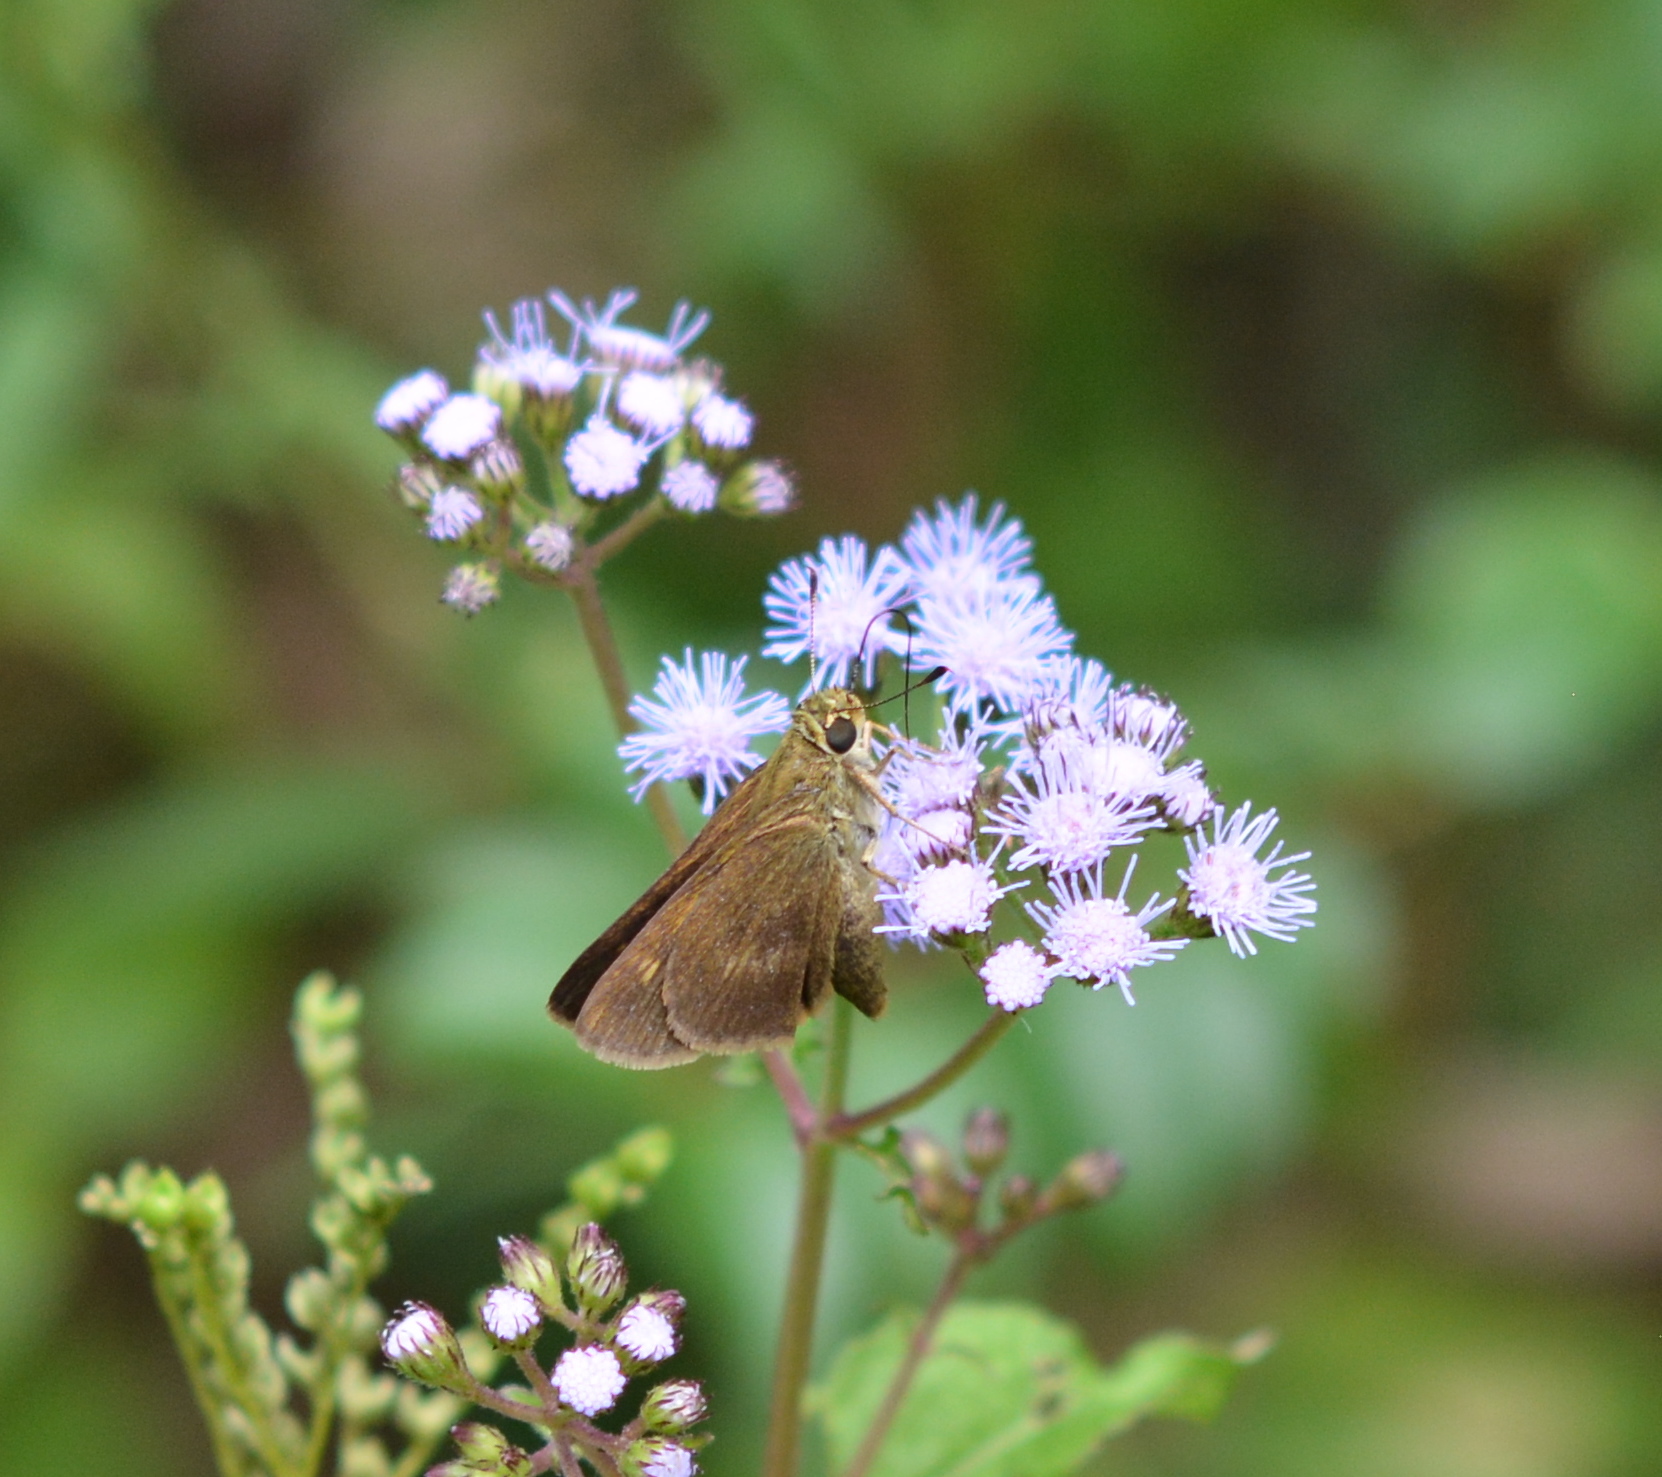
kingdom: Animalia
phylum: Arthropoda
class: Insecta
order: Lepidoptera
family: Hesperiidae
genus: Polites
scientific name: Polites egeremet
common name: Northern broken-dash
